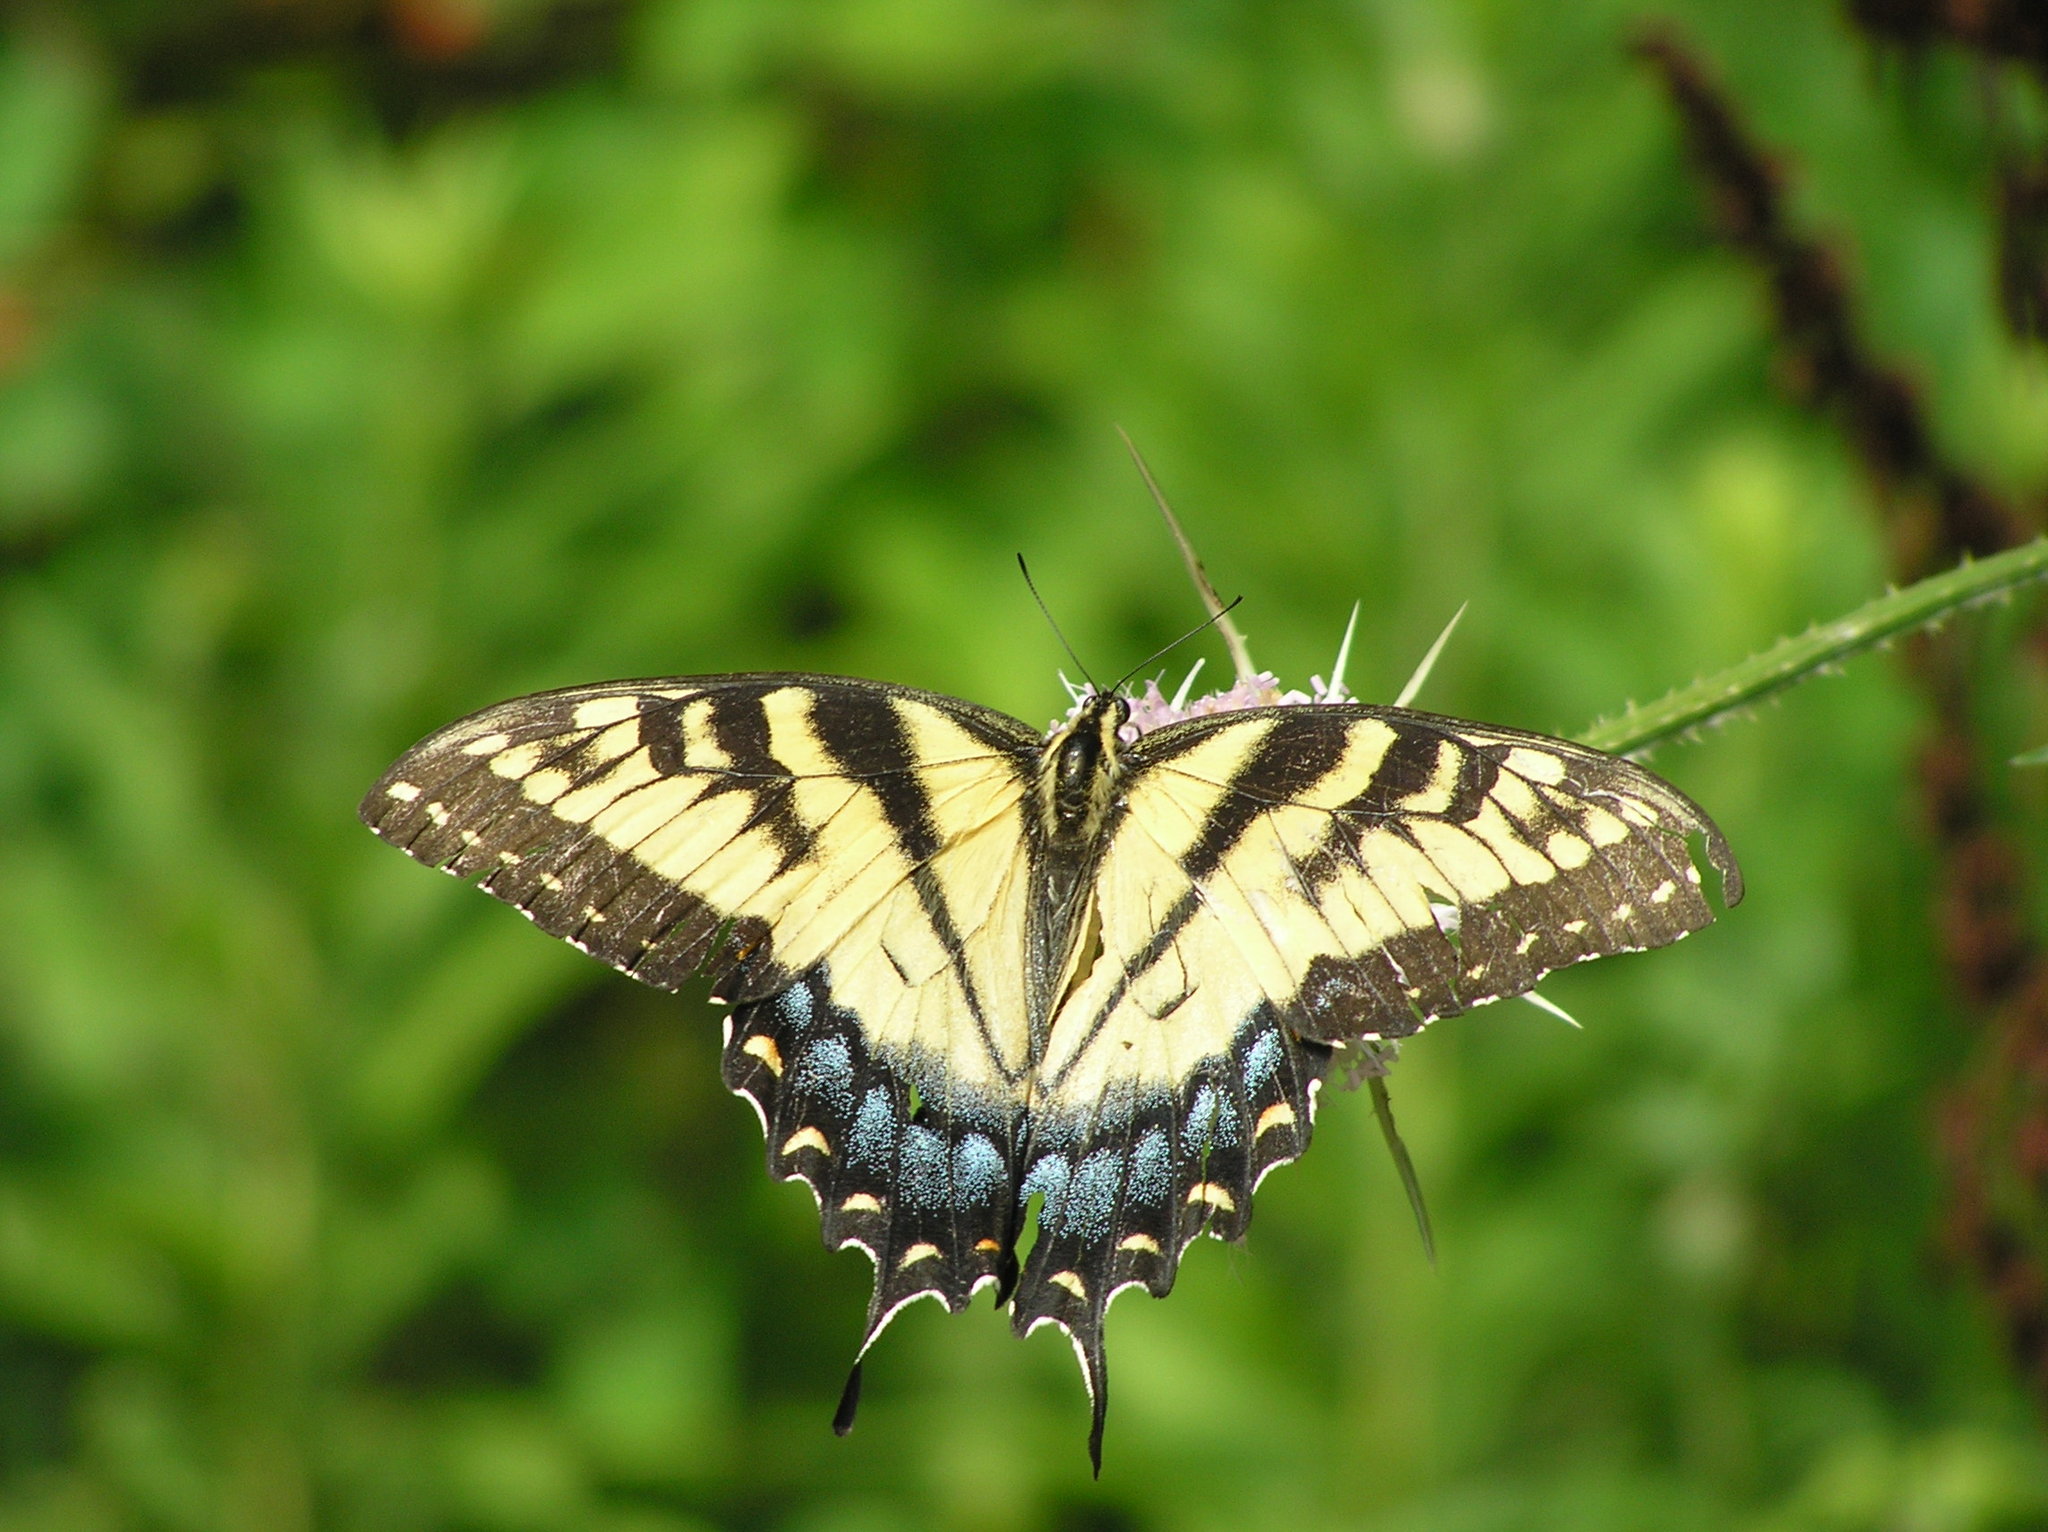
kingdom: Animalia
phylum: Arthropoda
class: Insecta
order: Lepidoptera
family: Papilionidae
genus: Papilio
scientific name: Papilio glaucus
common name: Tiger swallowtail
